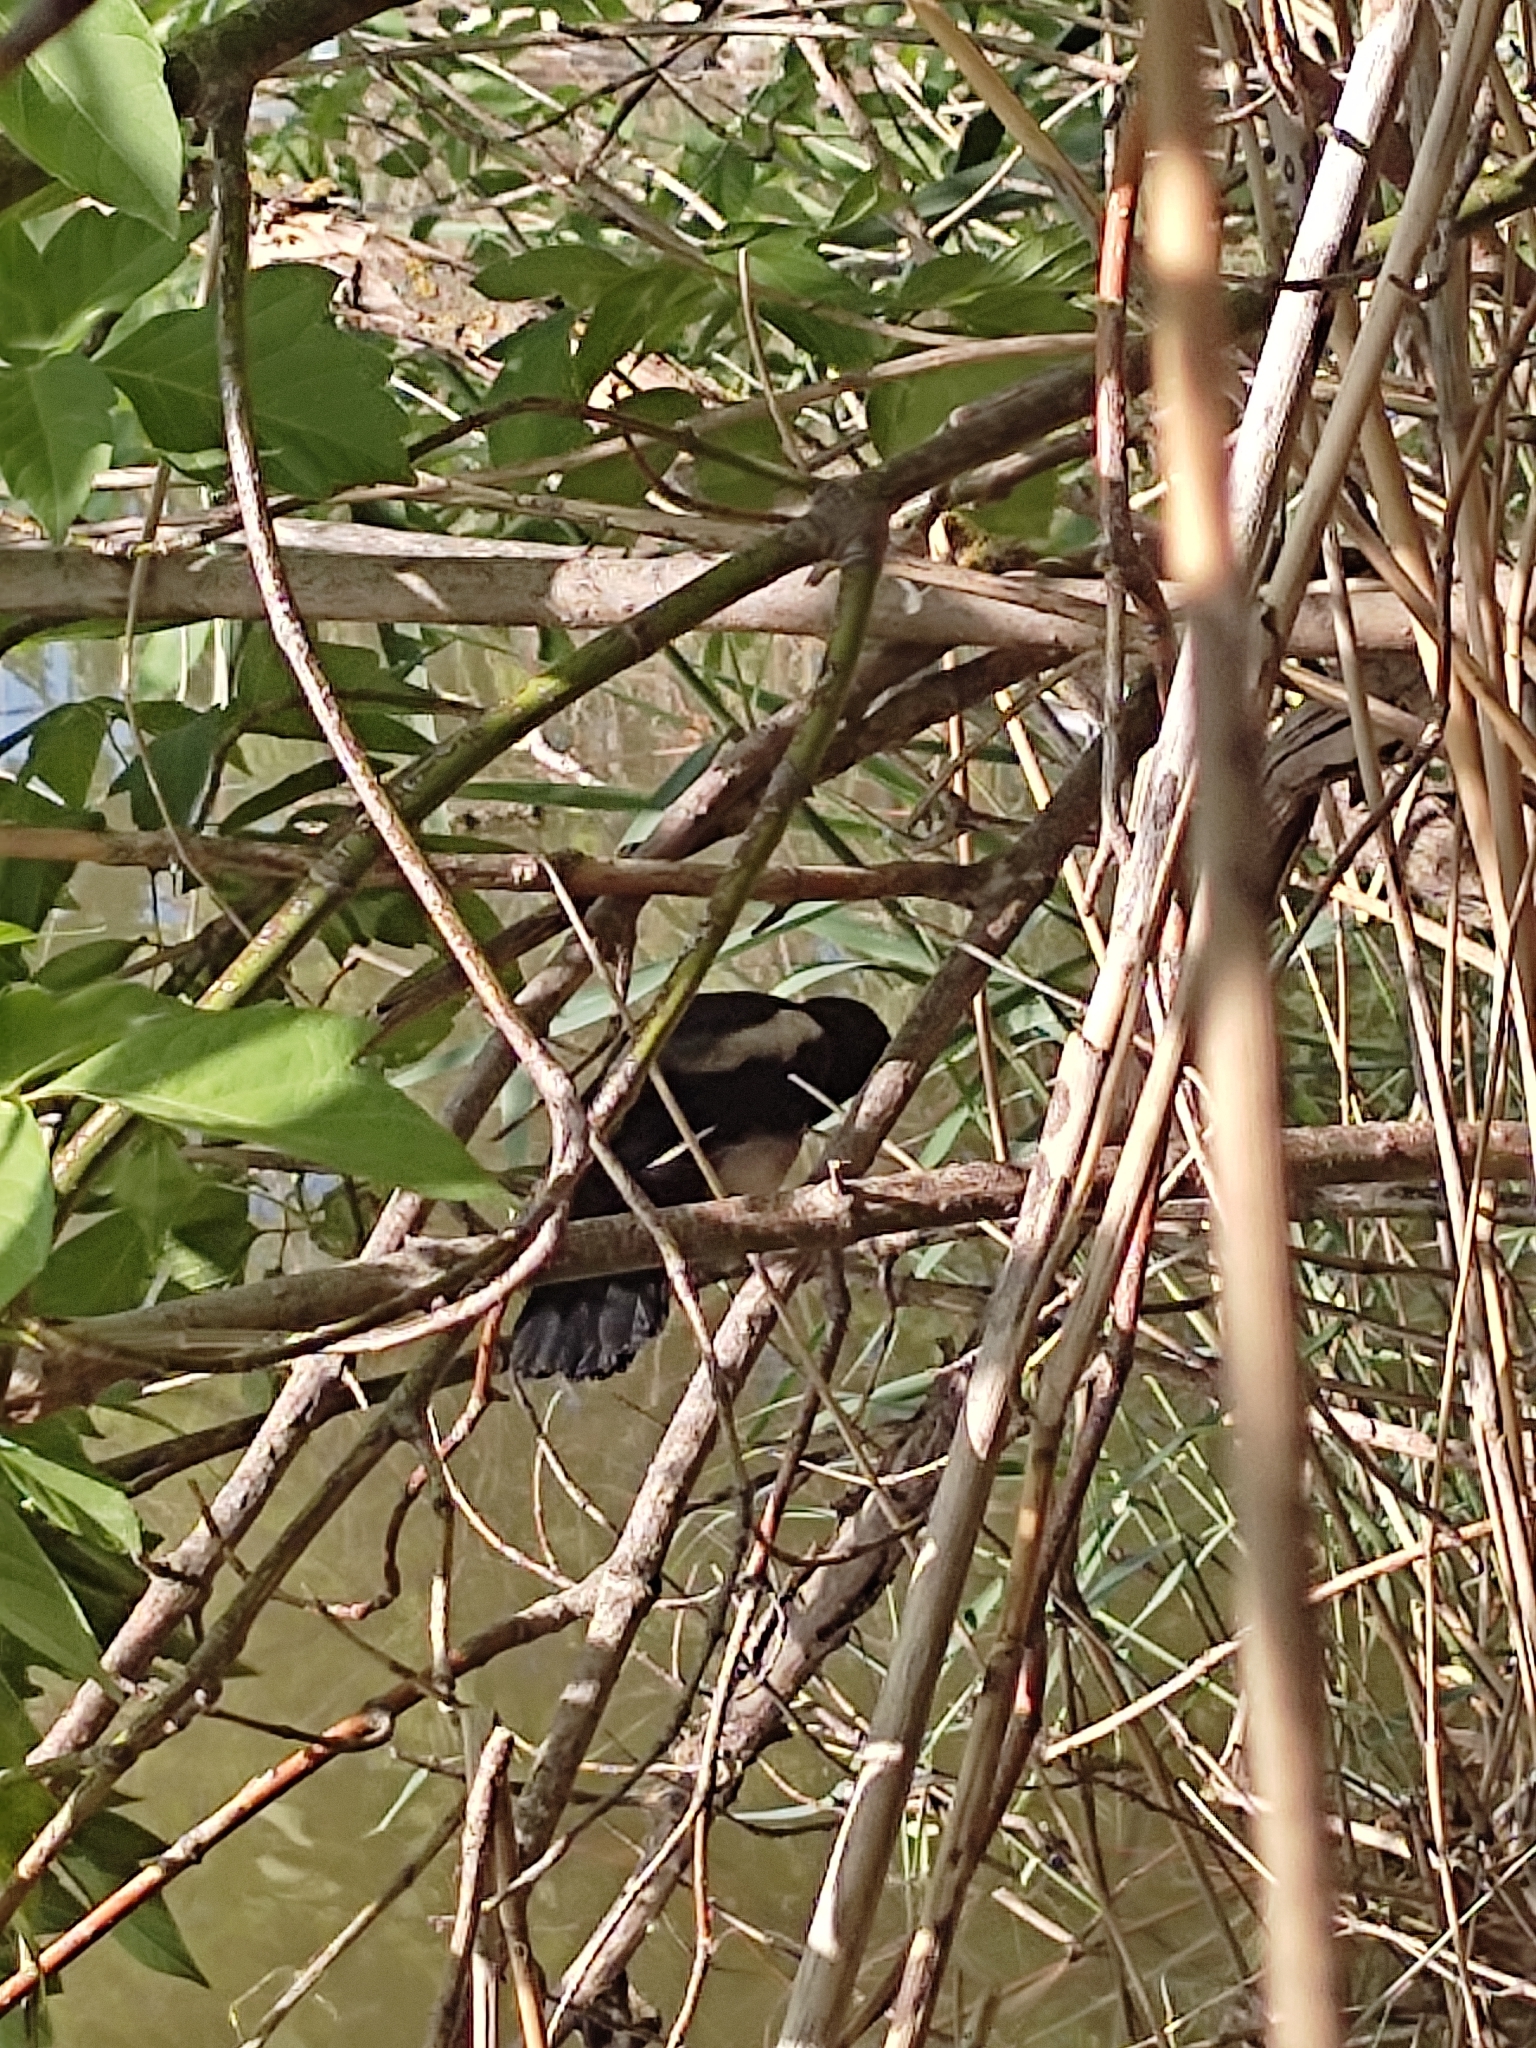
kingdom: Animalia
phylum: Chordata
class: Aves
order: Passeriformes
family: Corvidae
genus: Pica
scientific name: Pica pica
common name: Eurasian magpie
